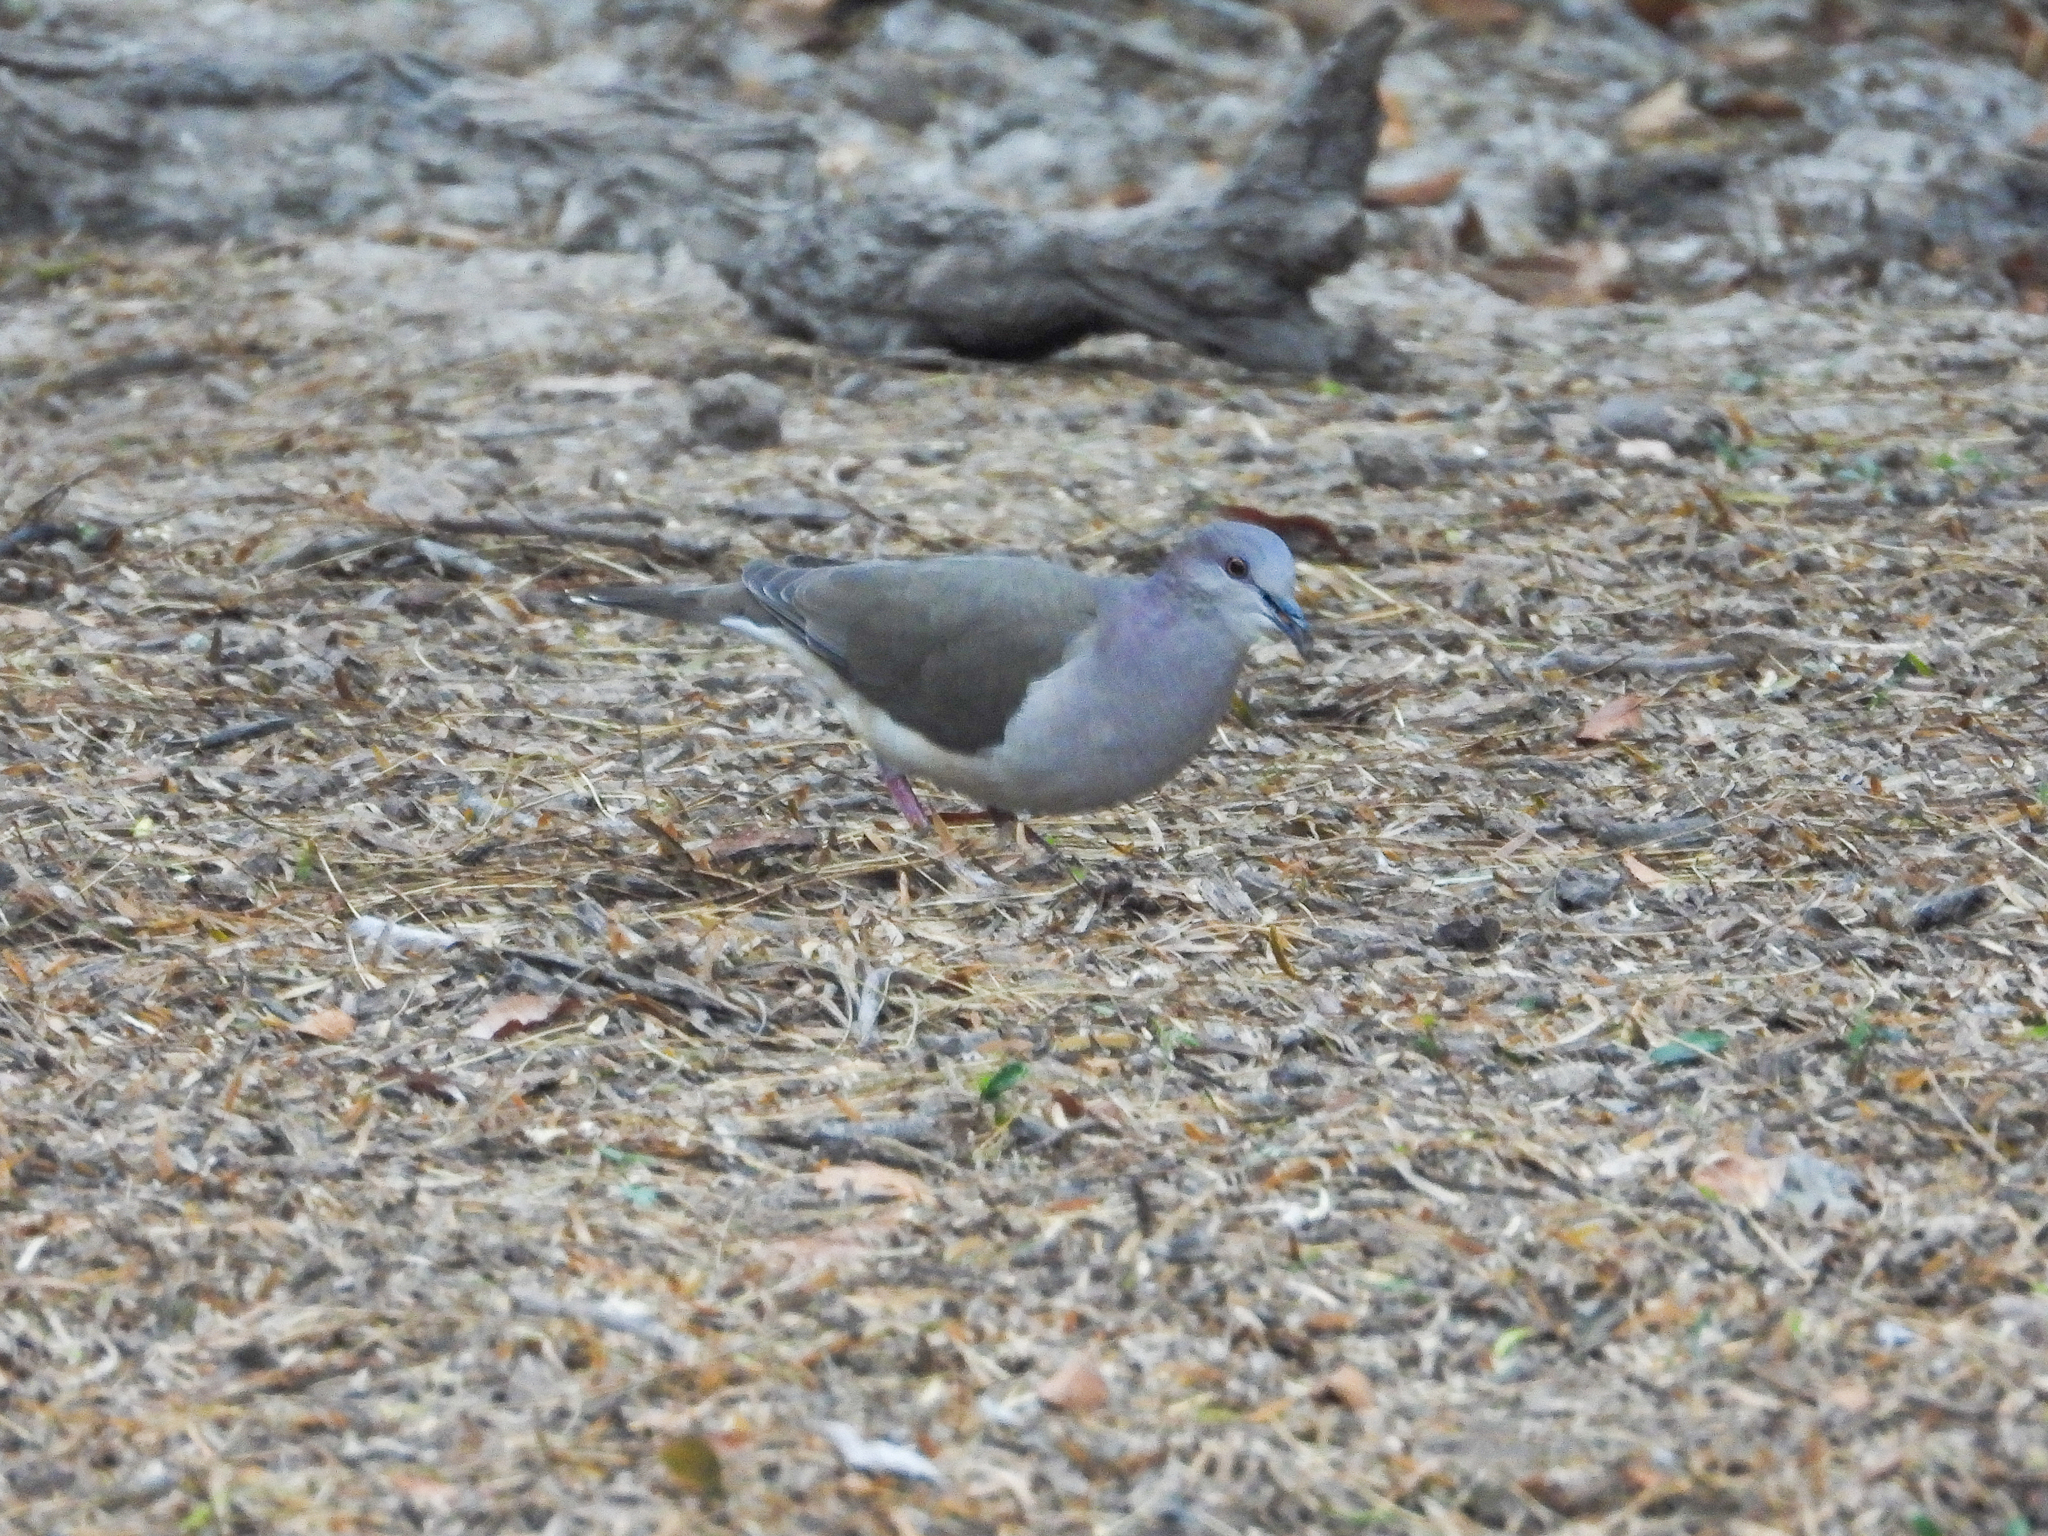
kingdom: Animalia
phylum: Chordata
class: Aves
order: Columbiformes
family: Columbidae
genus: Leptotila
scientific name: Leptotila verreauxi
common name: White-tipped dove
